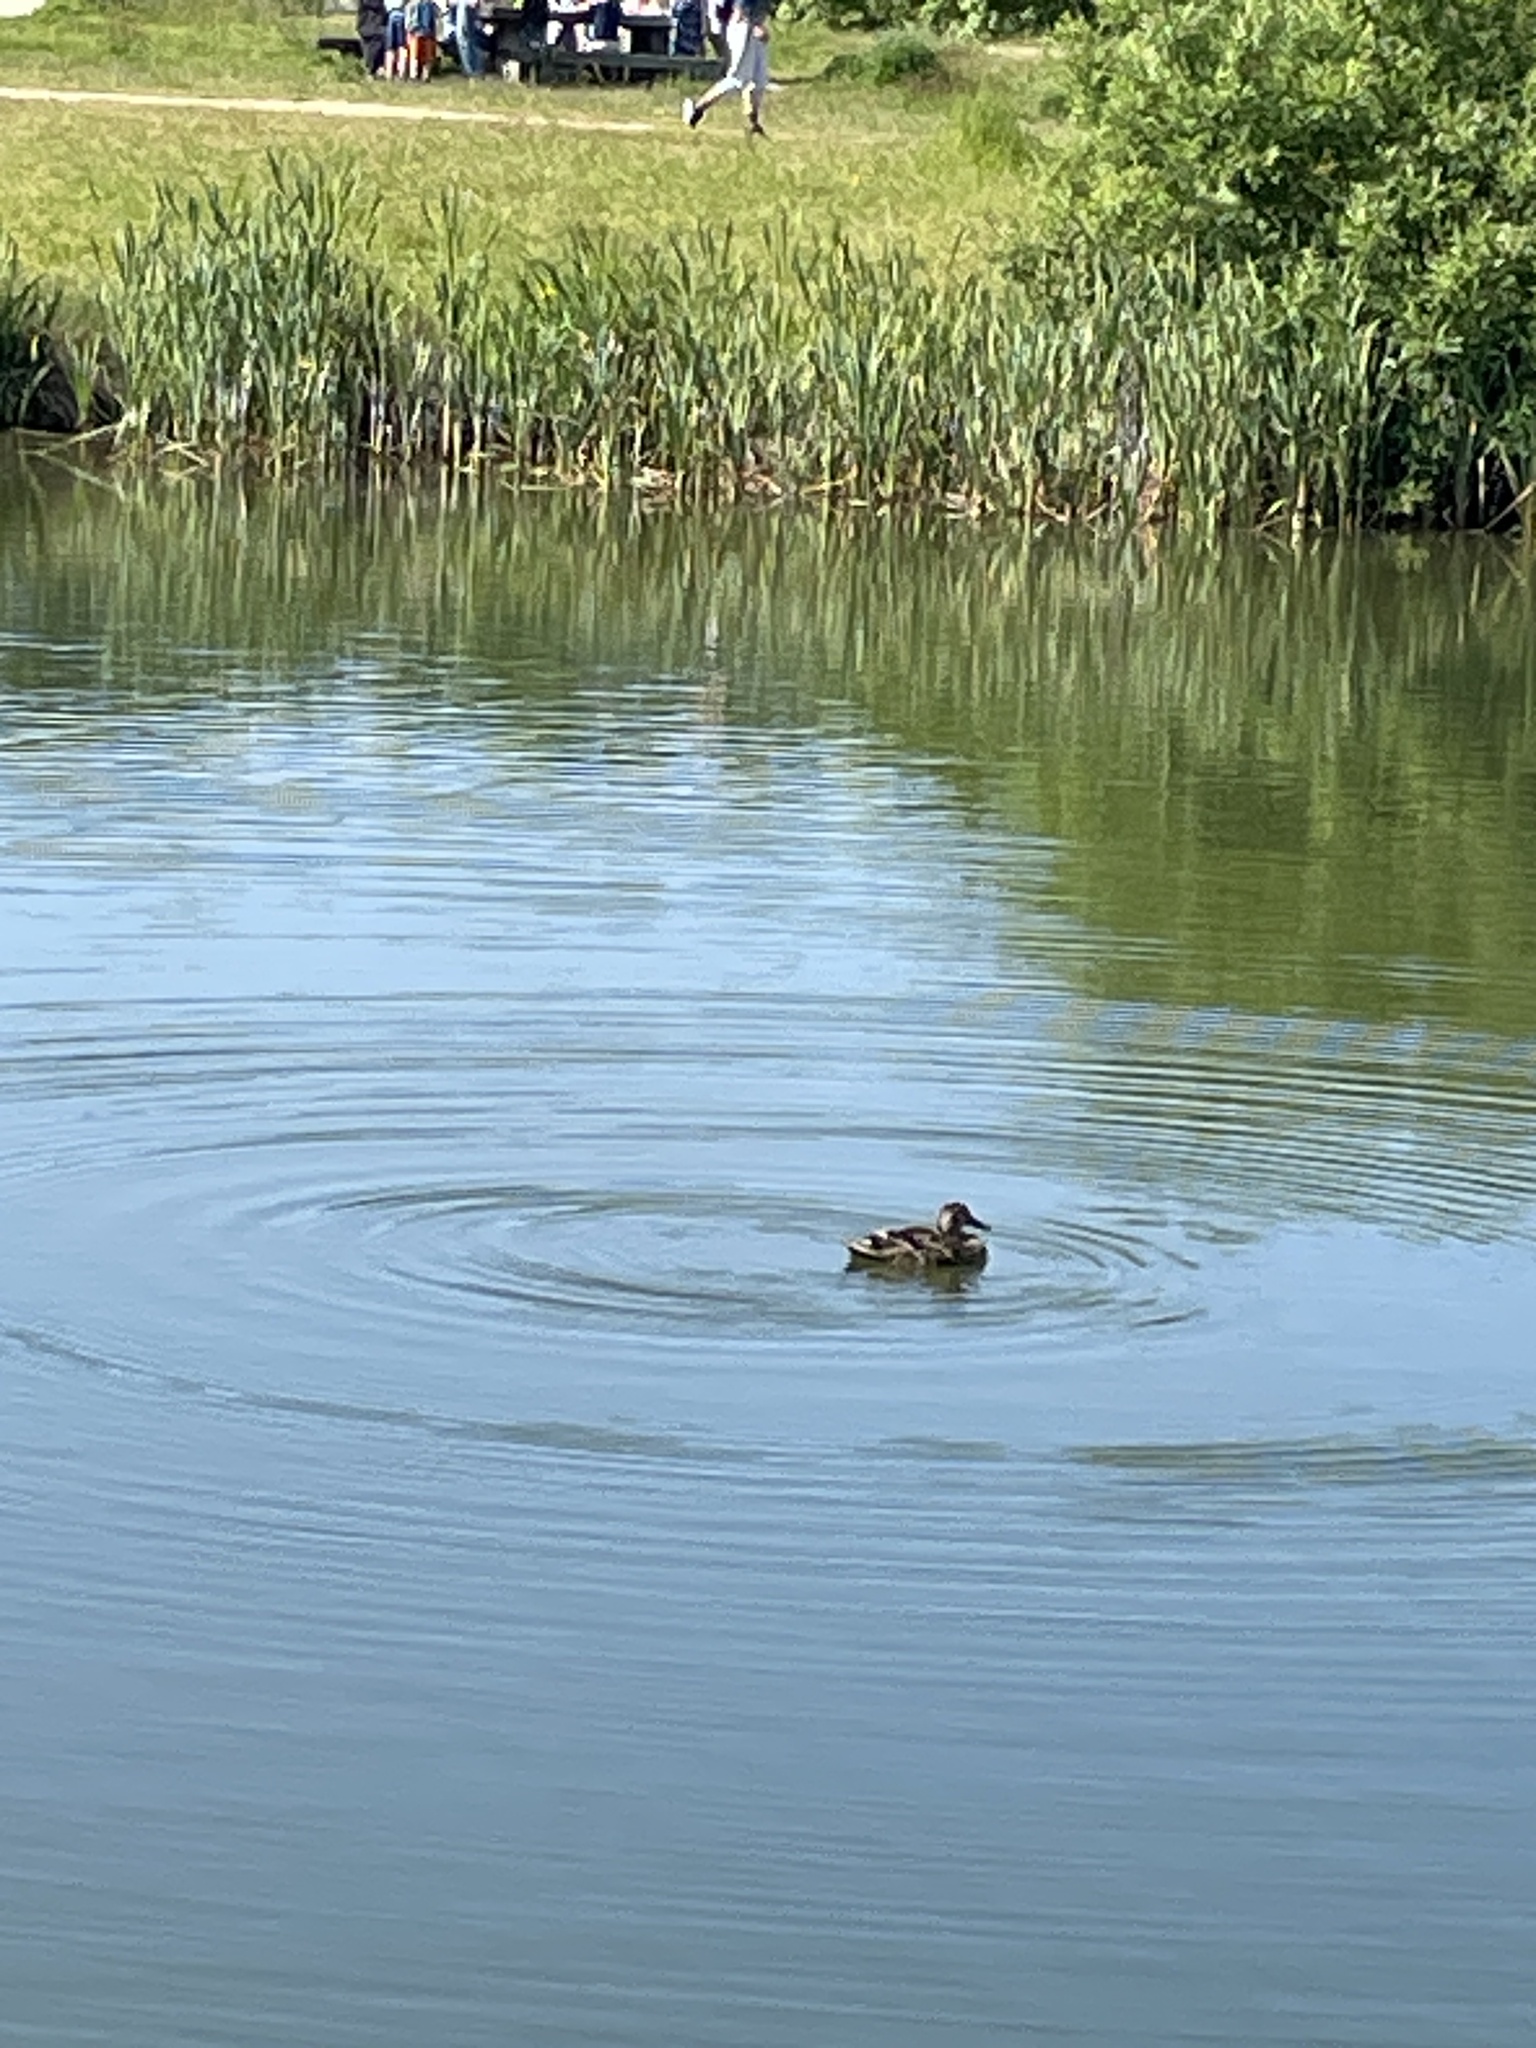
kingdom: Animalia
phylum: Chordata
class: Aves
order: Anseriformes
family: Anatidae
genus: Anas
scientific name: Anas platyrhynchos
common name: Mallard
